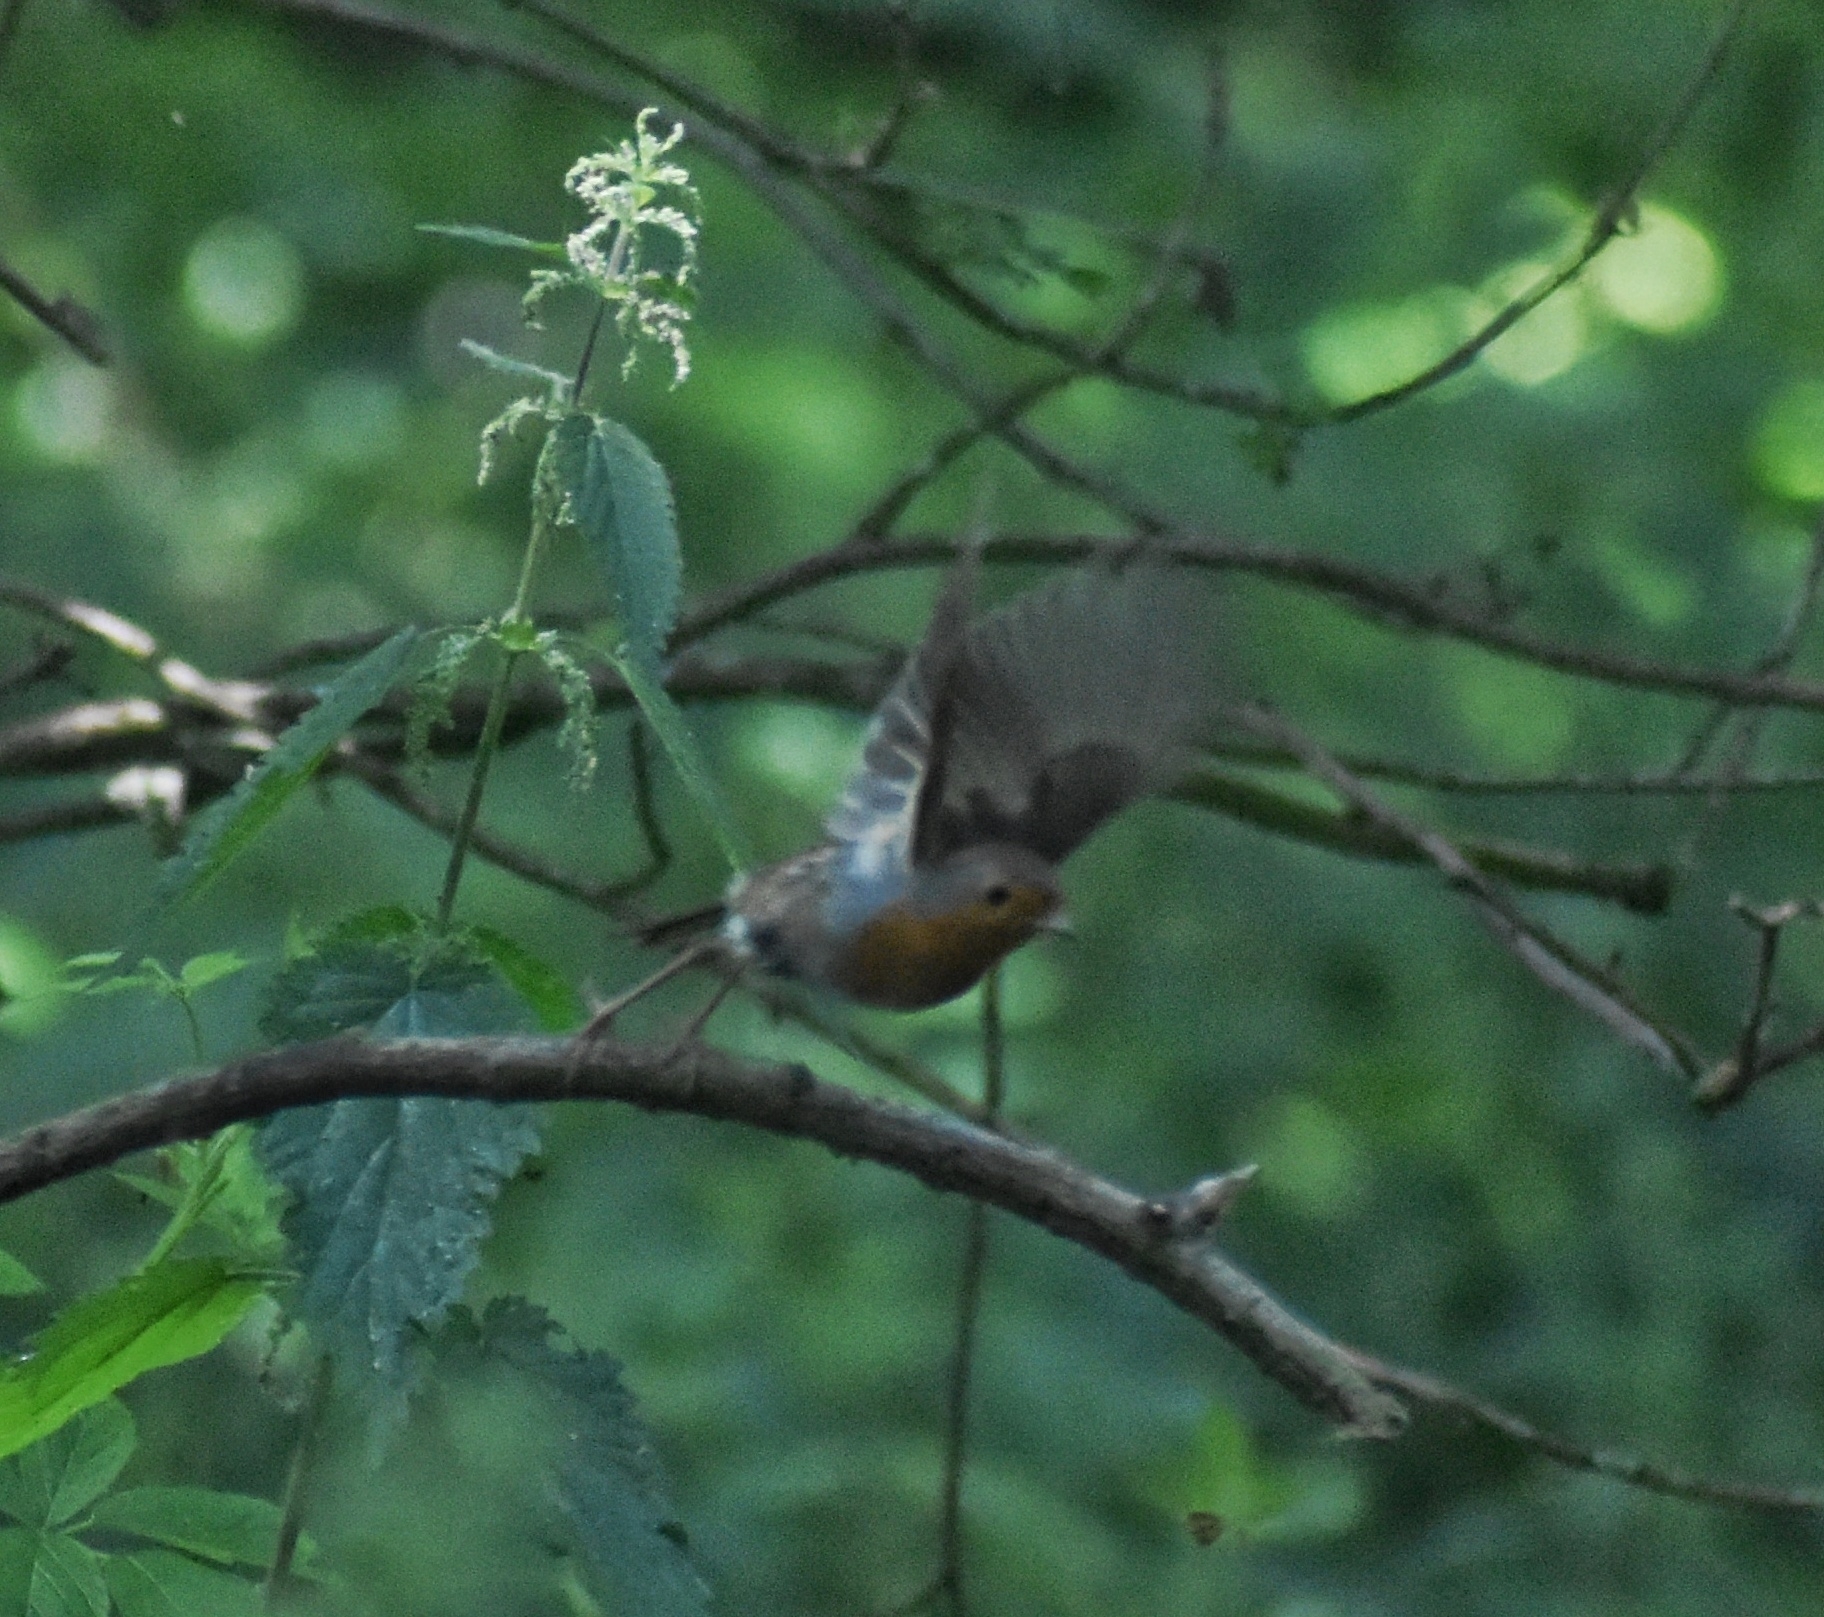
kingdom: Animalia
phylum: Chordata
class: Aves
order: Passeriformes
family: Muscicapidae
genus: Erithacus
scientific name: Erithacus rubecula
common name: European robin
